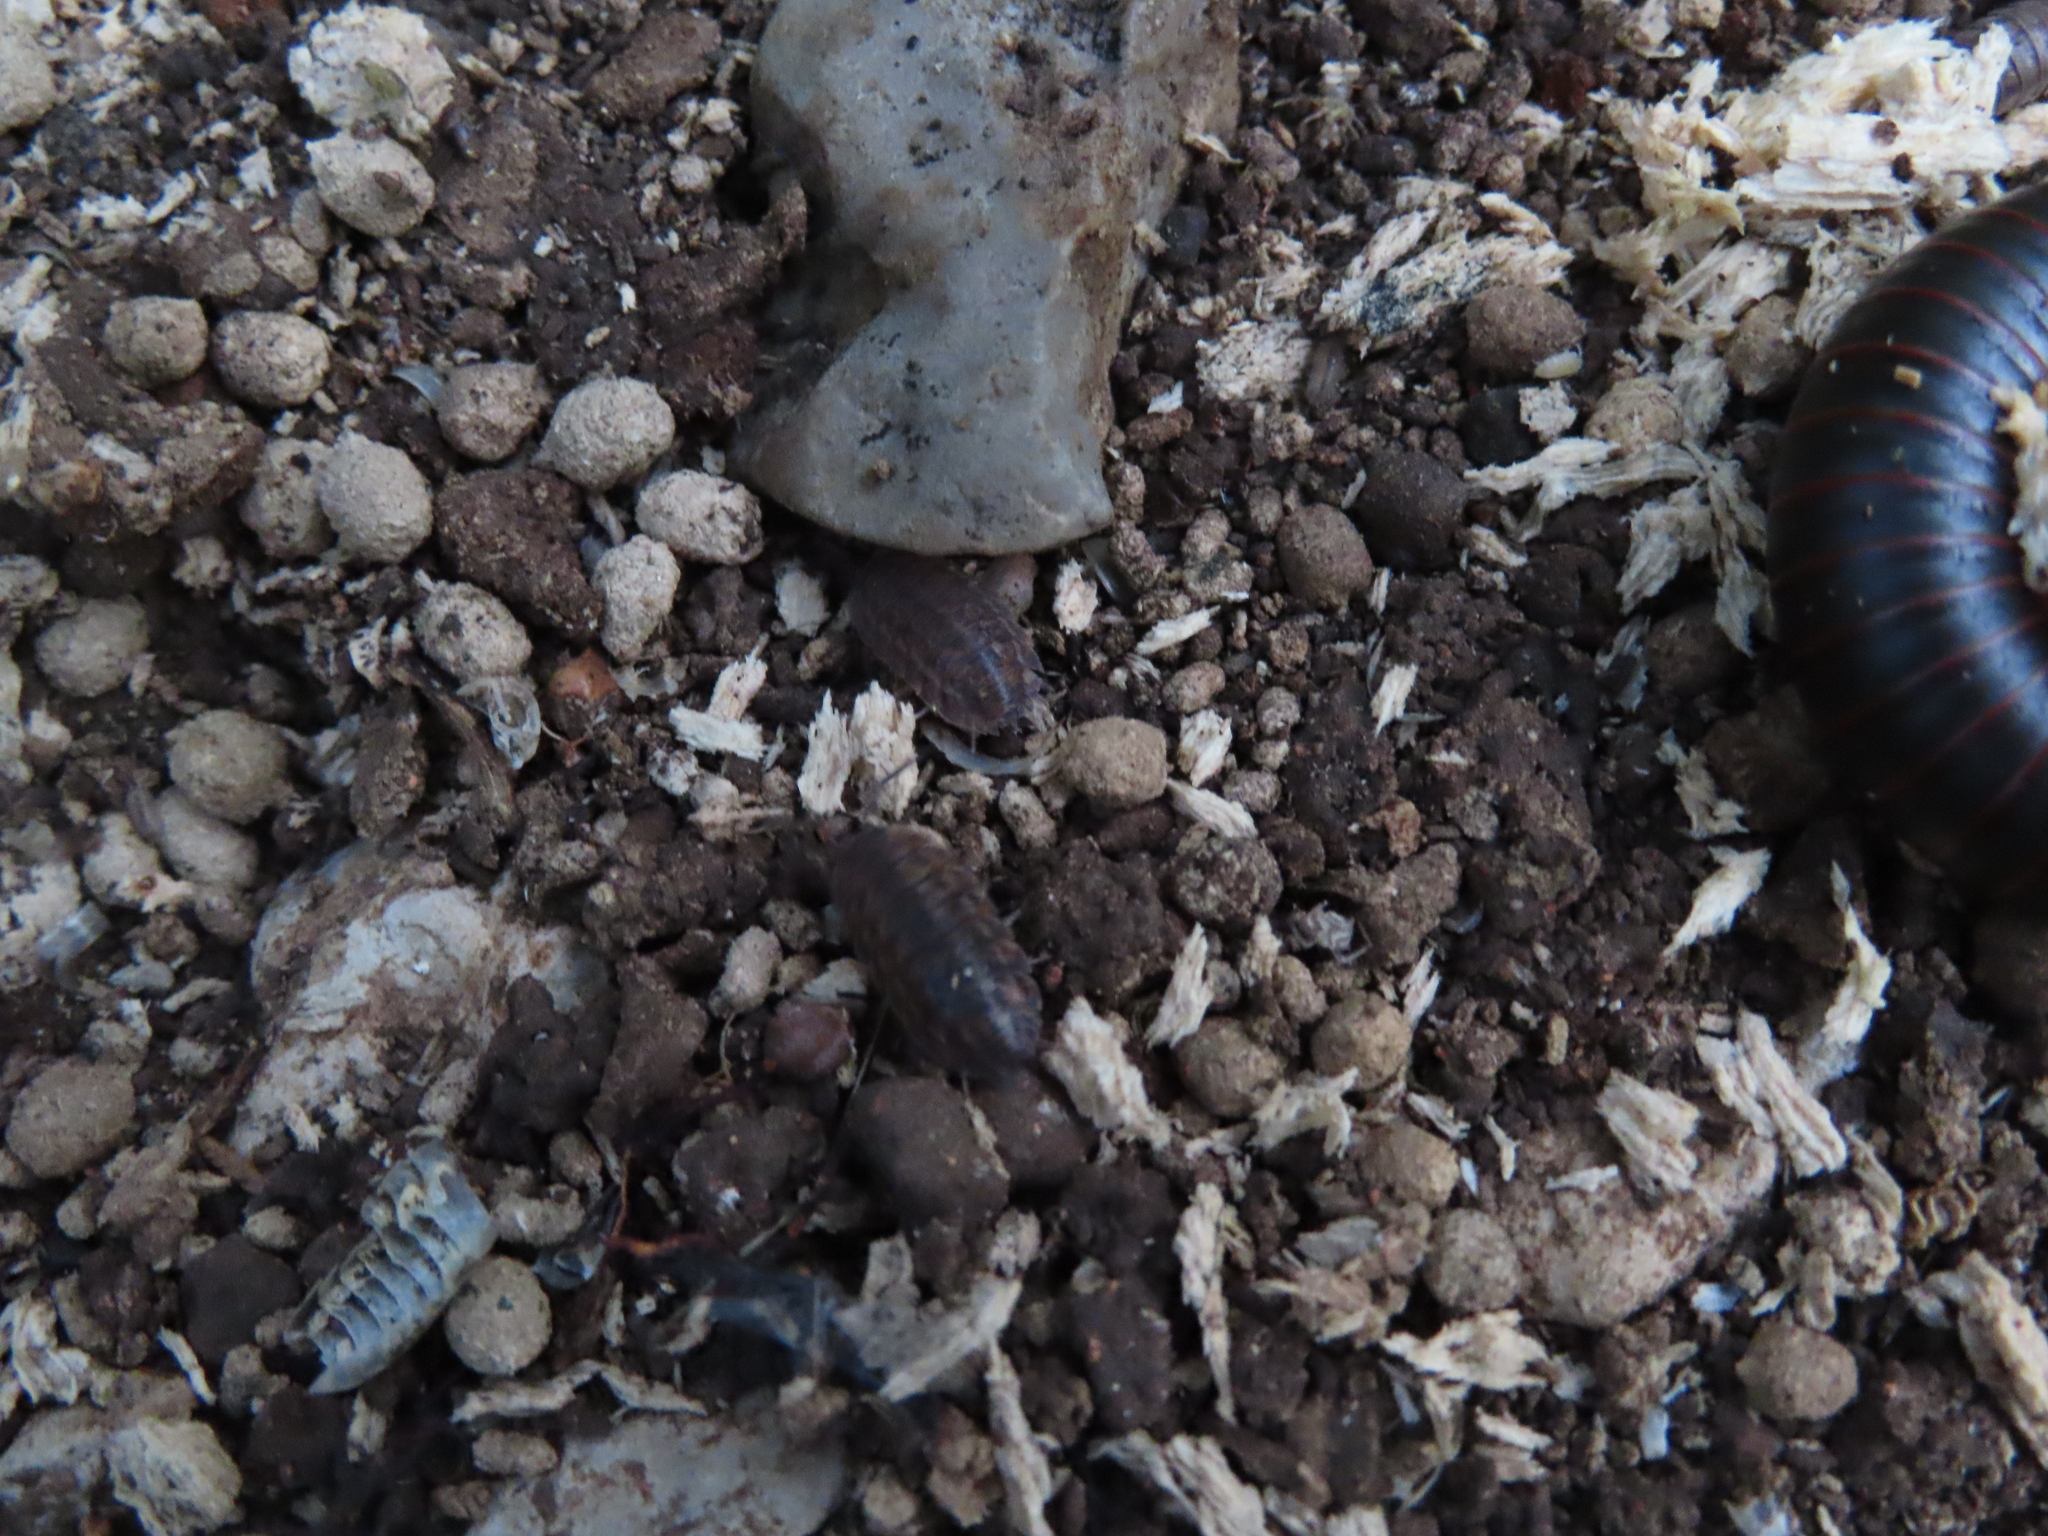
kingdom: Animalia
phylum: Arthropoda
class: Malacostraca
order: Isopoda
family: Trachelipodidae
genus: Trachelipus
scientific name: Trachelipus rathkii
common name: Isopod
